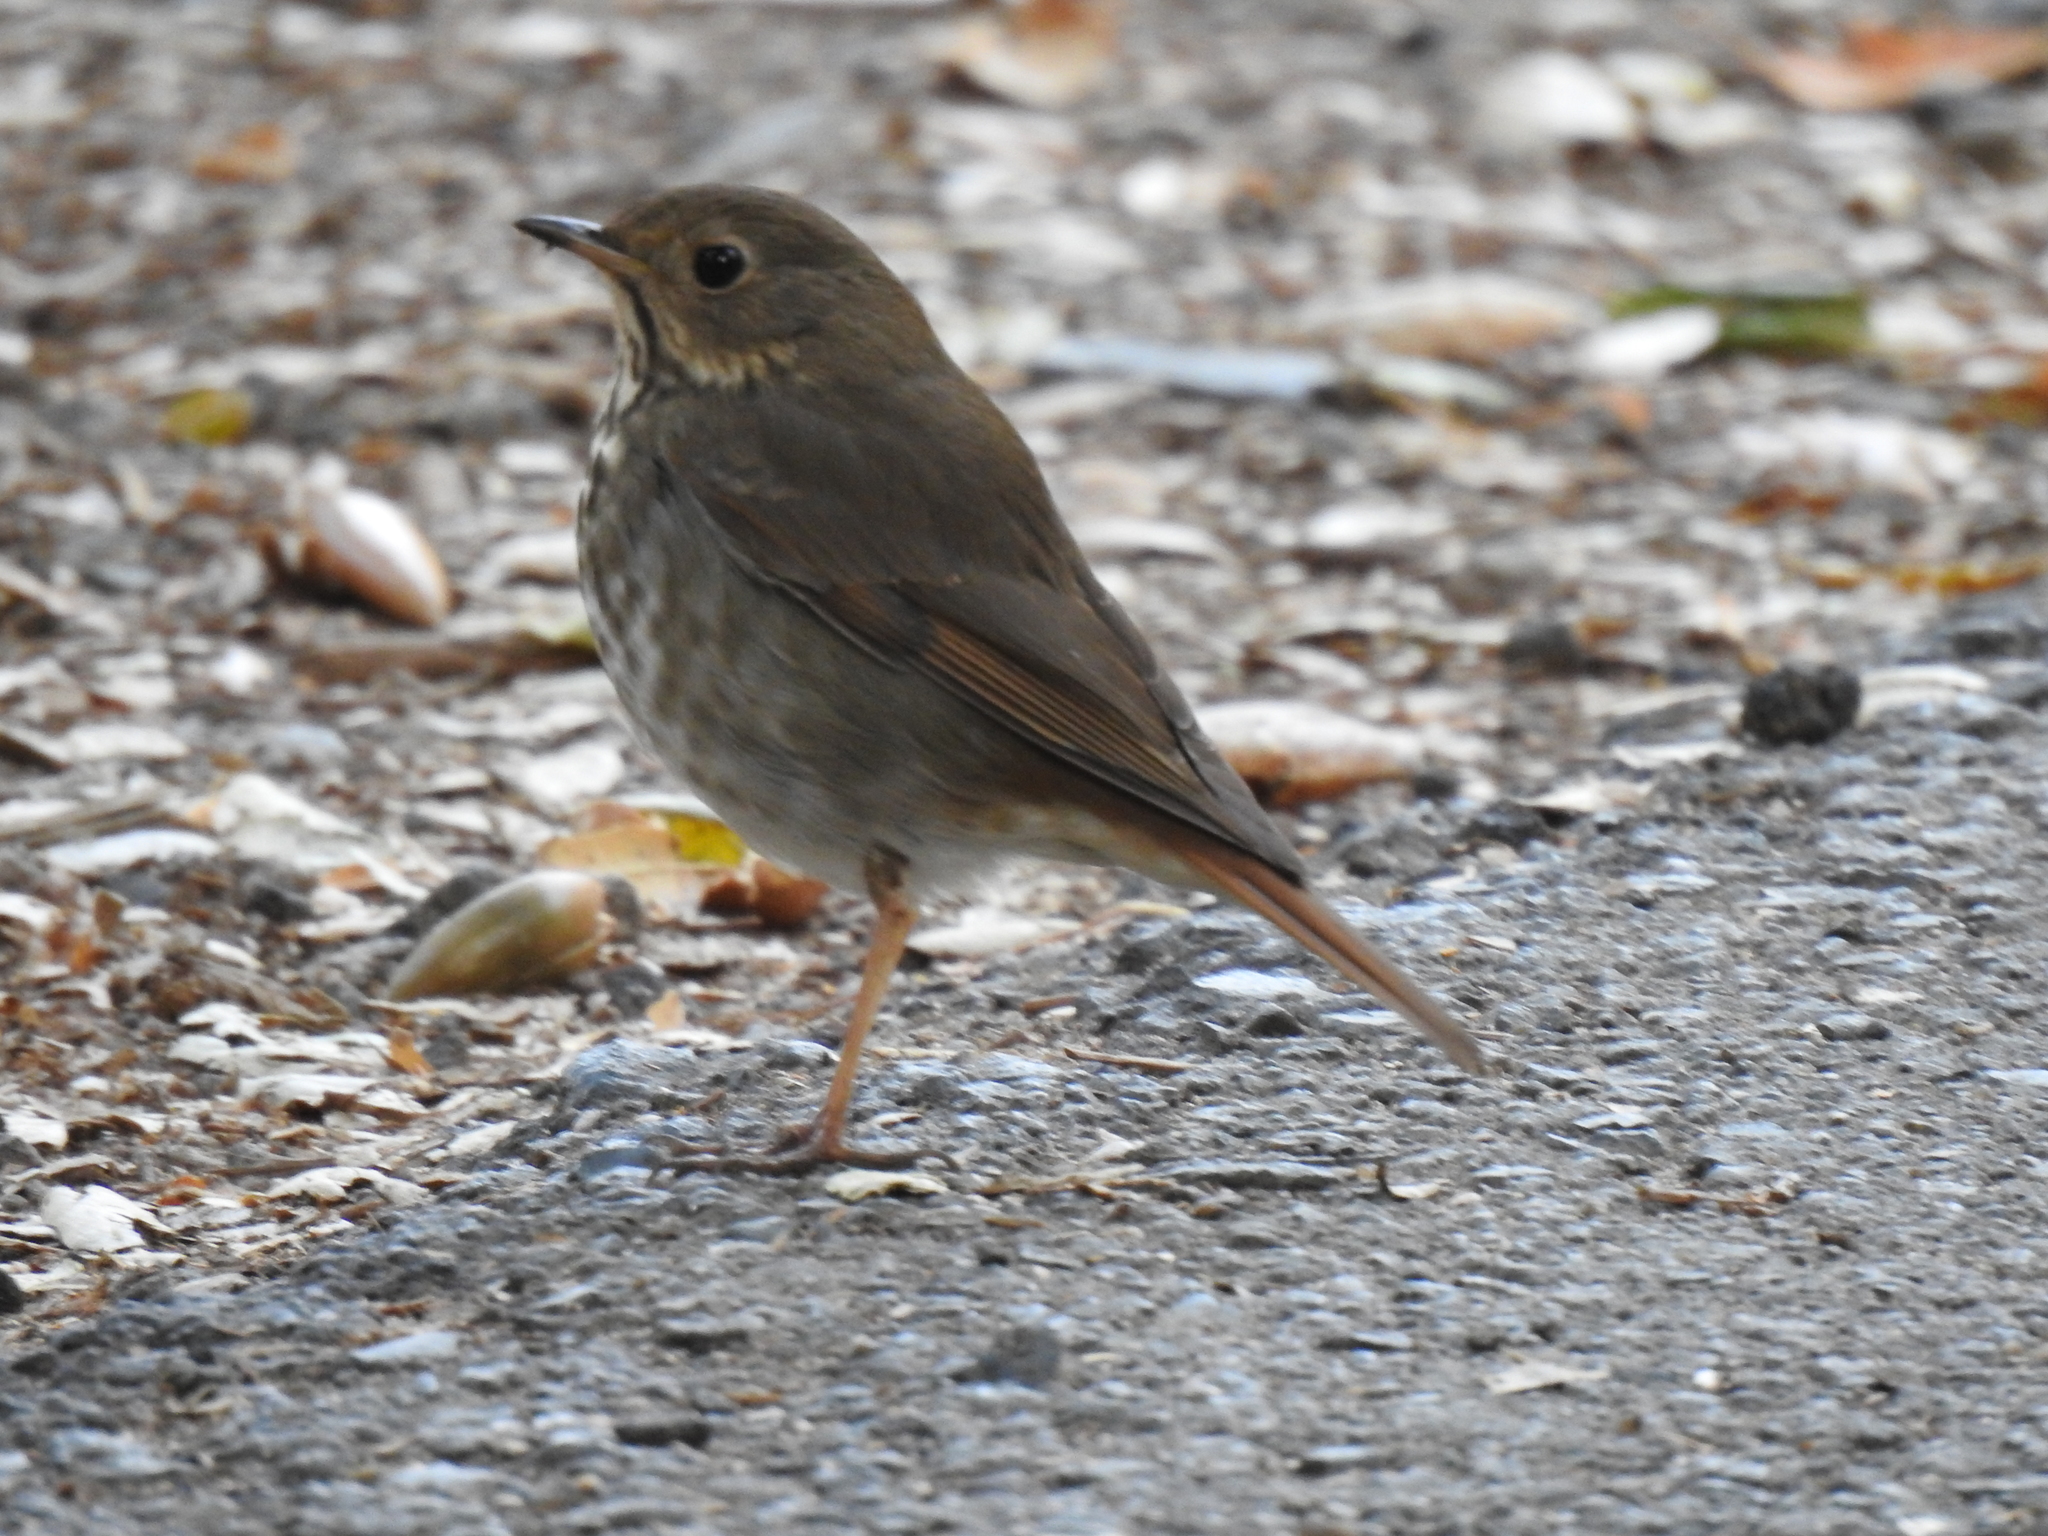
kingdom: Animalia
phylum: Chordata
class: Aves
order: Passeriformes
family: Turdidae
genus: Catharus
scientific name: Catharus guttatus
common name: Hermit thrush
